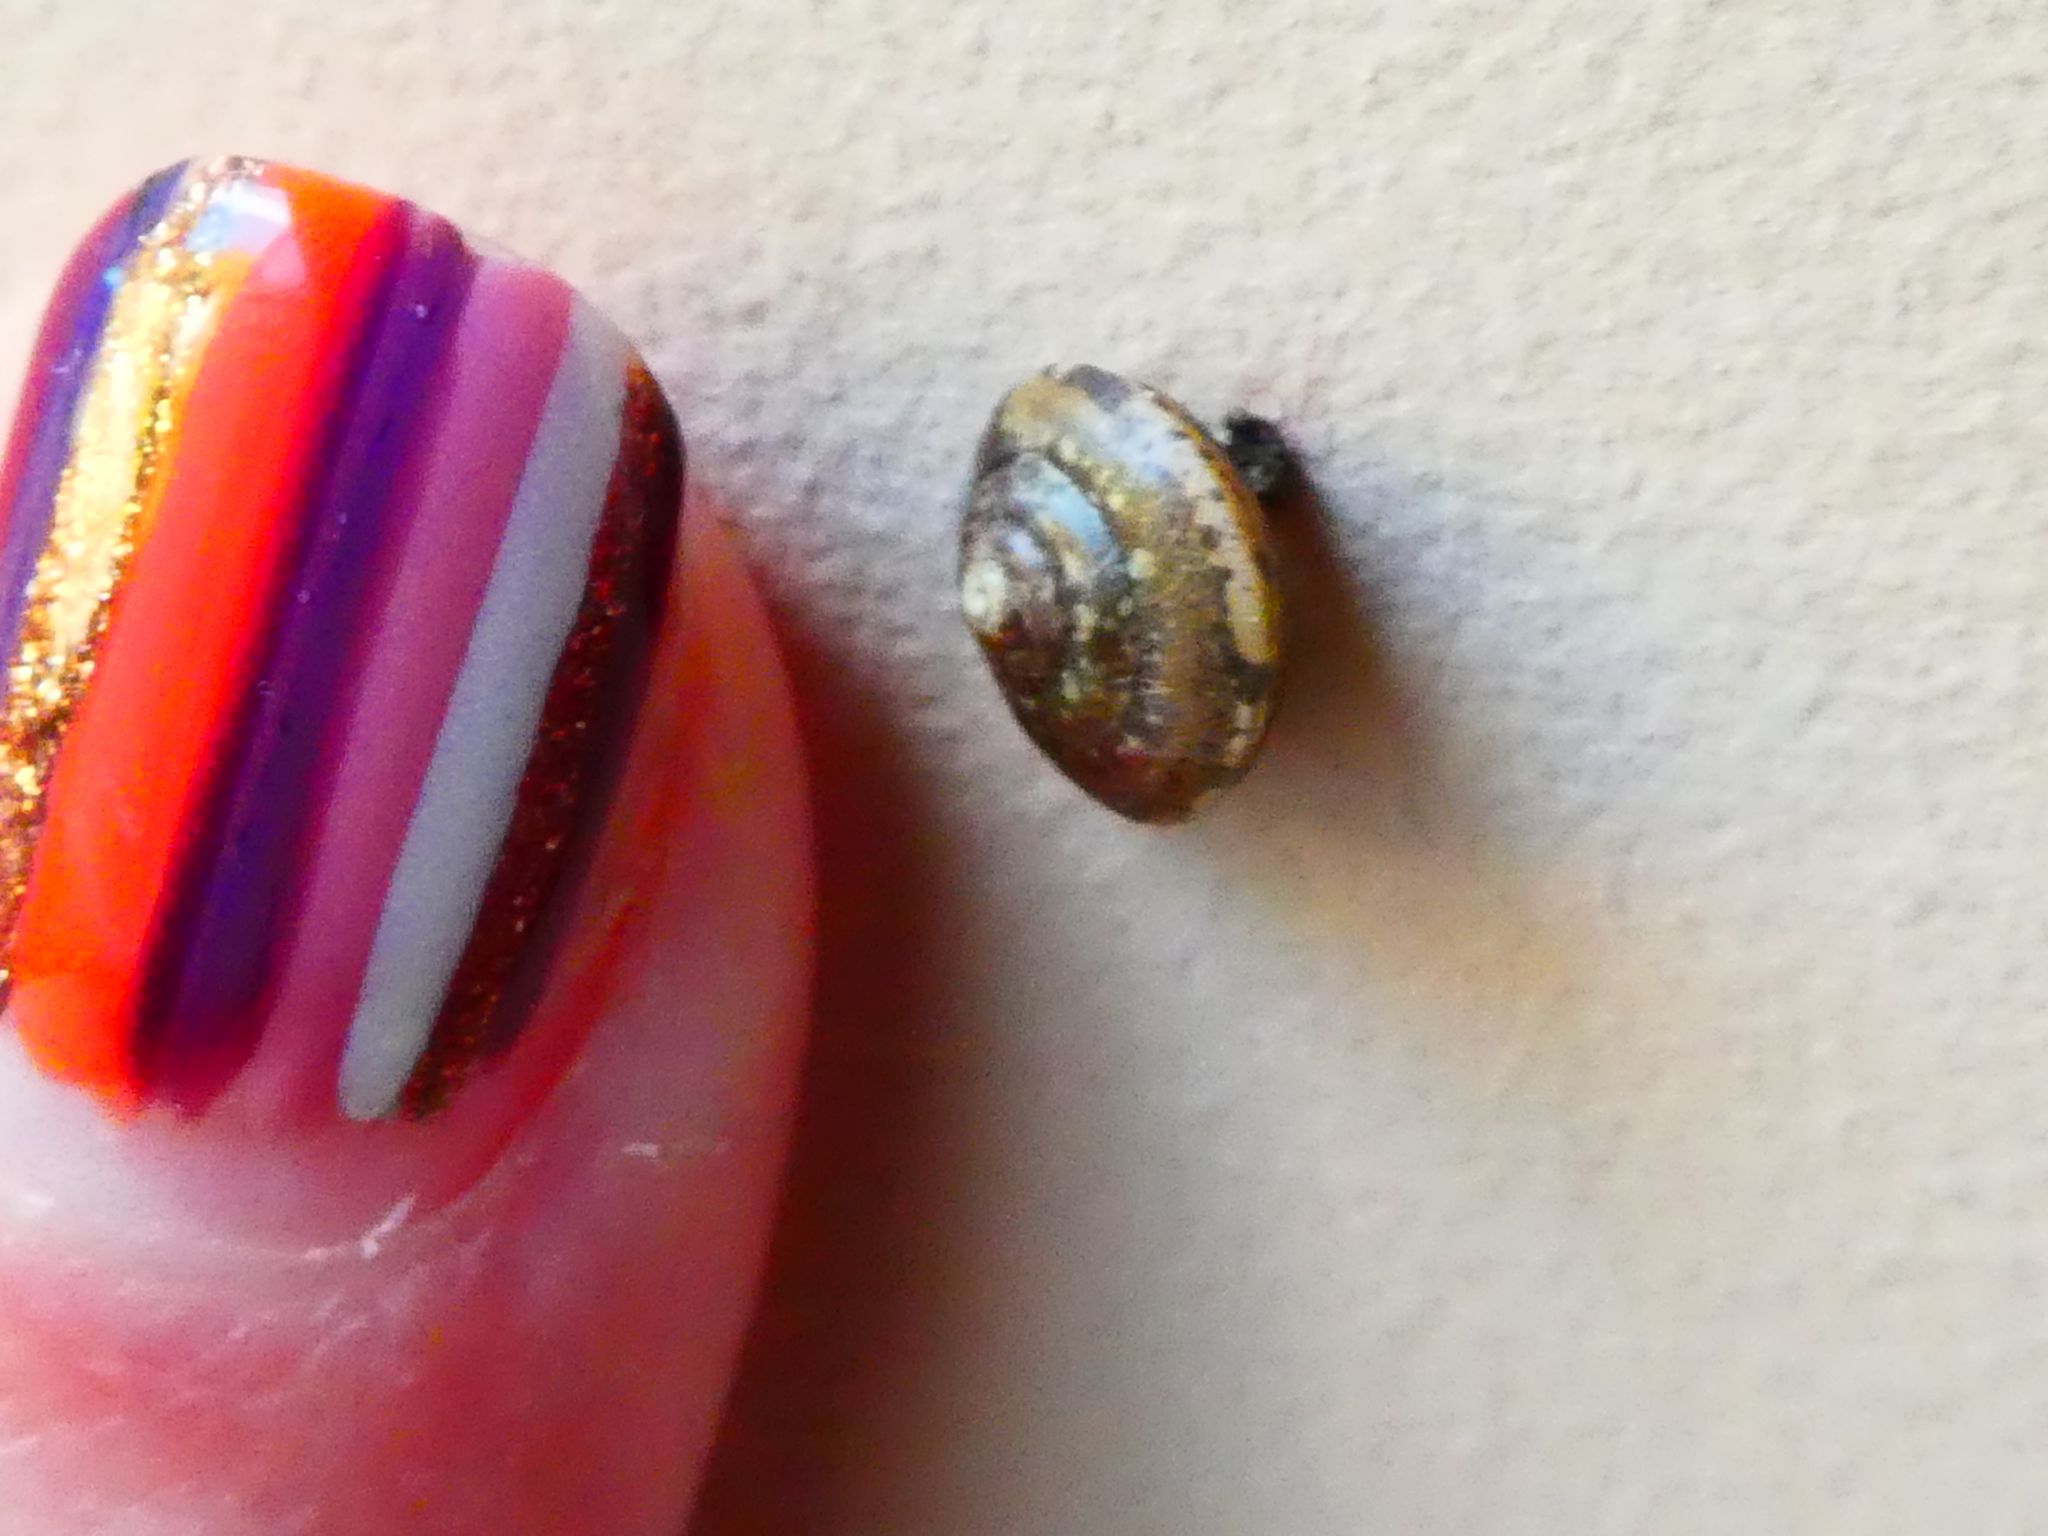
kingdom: Animalia
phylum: Mollusca
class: Gastropoda
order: Stylommatophora
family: Hygromiidae
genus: Hygromia
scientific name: Hygromia cinctella
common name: Girdled snail
